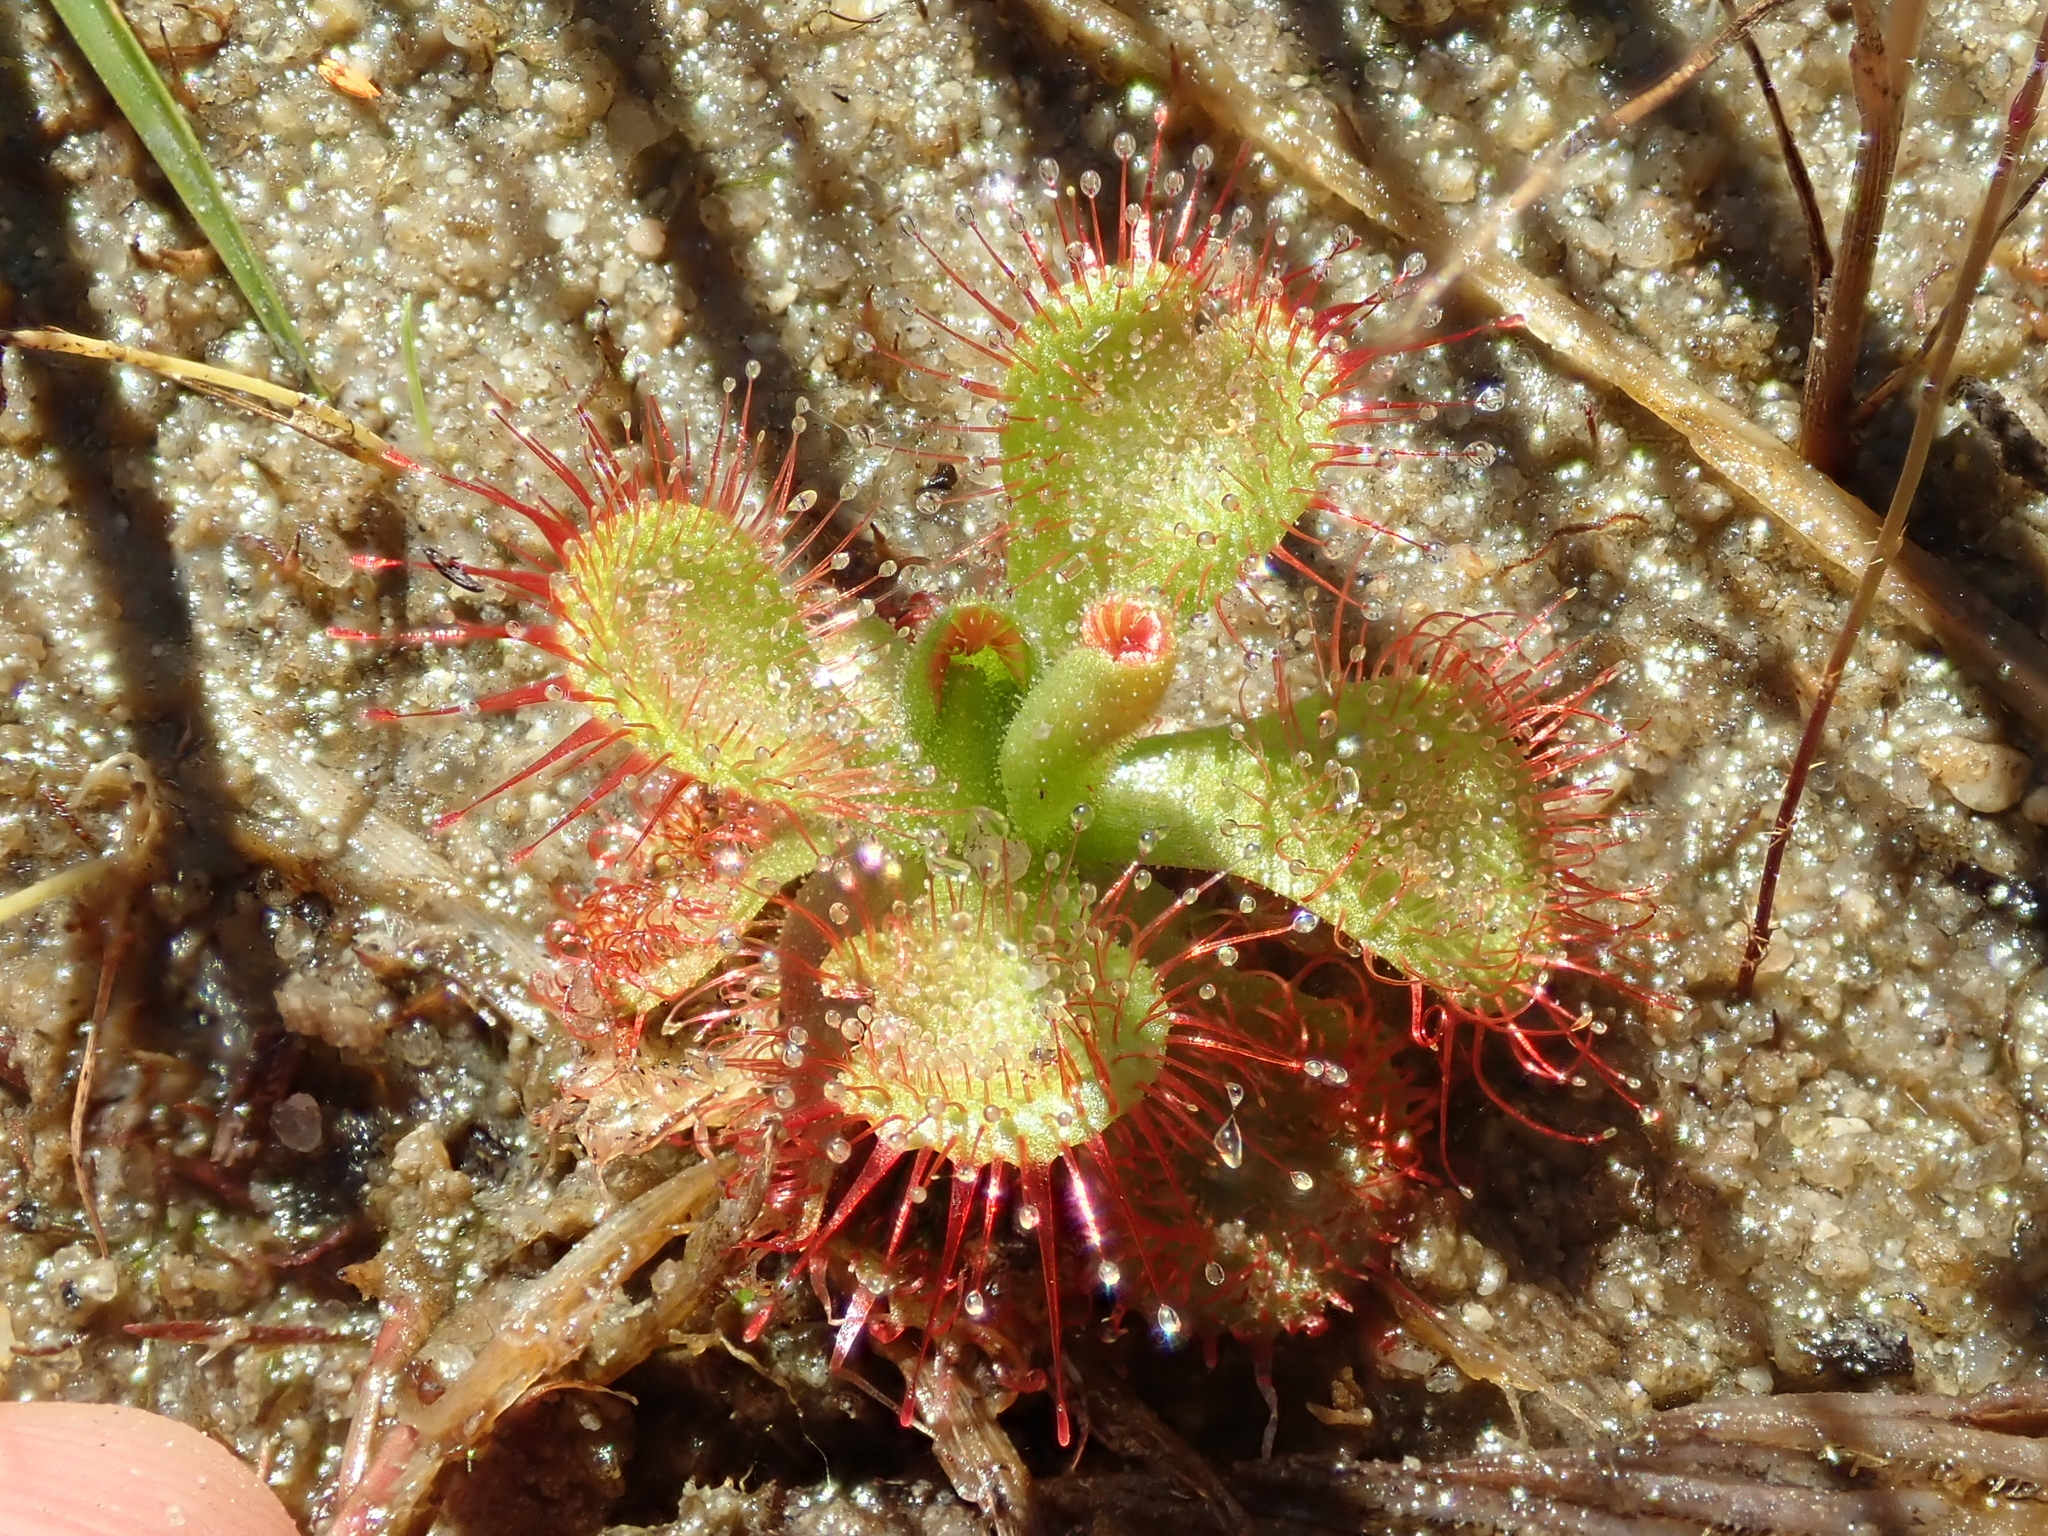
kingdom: Plantae
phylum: Tracheophyta
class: Magnoliopsida
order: Caryophyllales
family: Droseraceae
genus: Drosera
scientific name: Drosera sessilifolia
